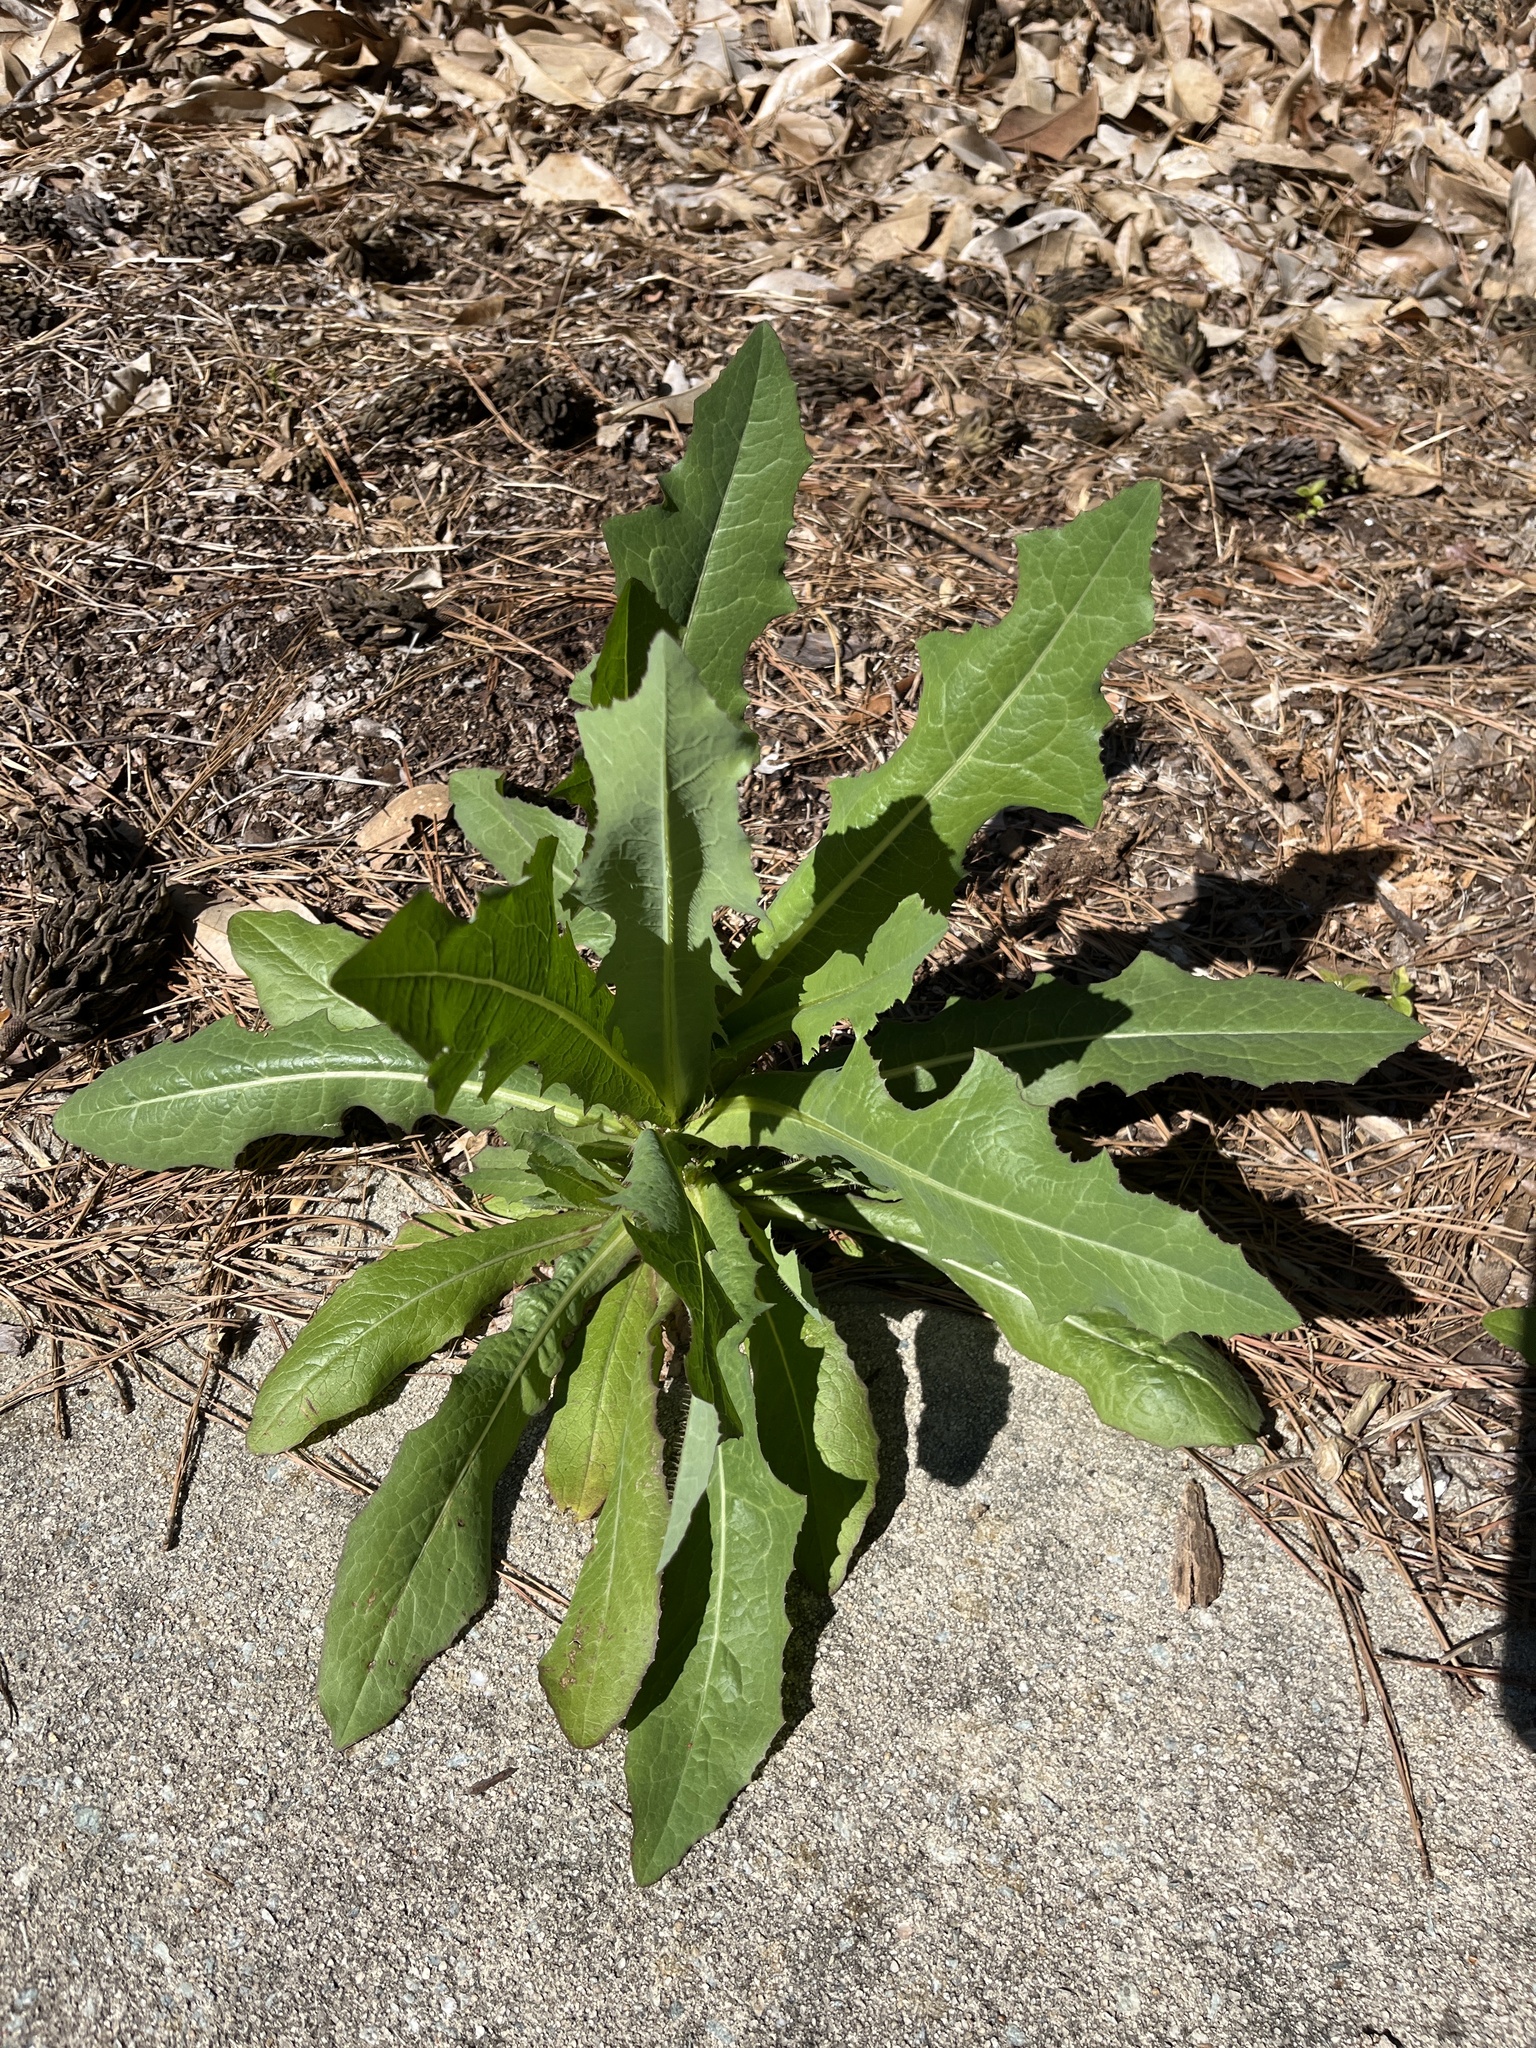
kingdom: Plantae
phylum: Tracheophyta
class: Magnoliopsida
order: Asterales
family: Asteraceae
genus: Lactuca
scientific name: Lactuca serriola
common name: Prickly lettuce
